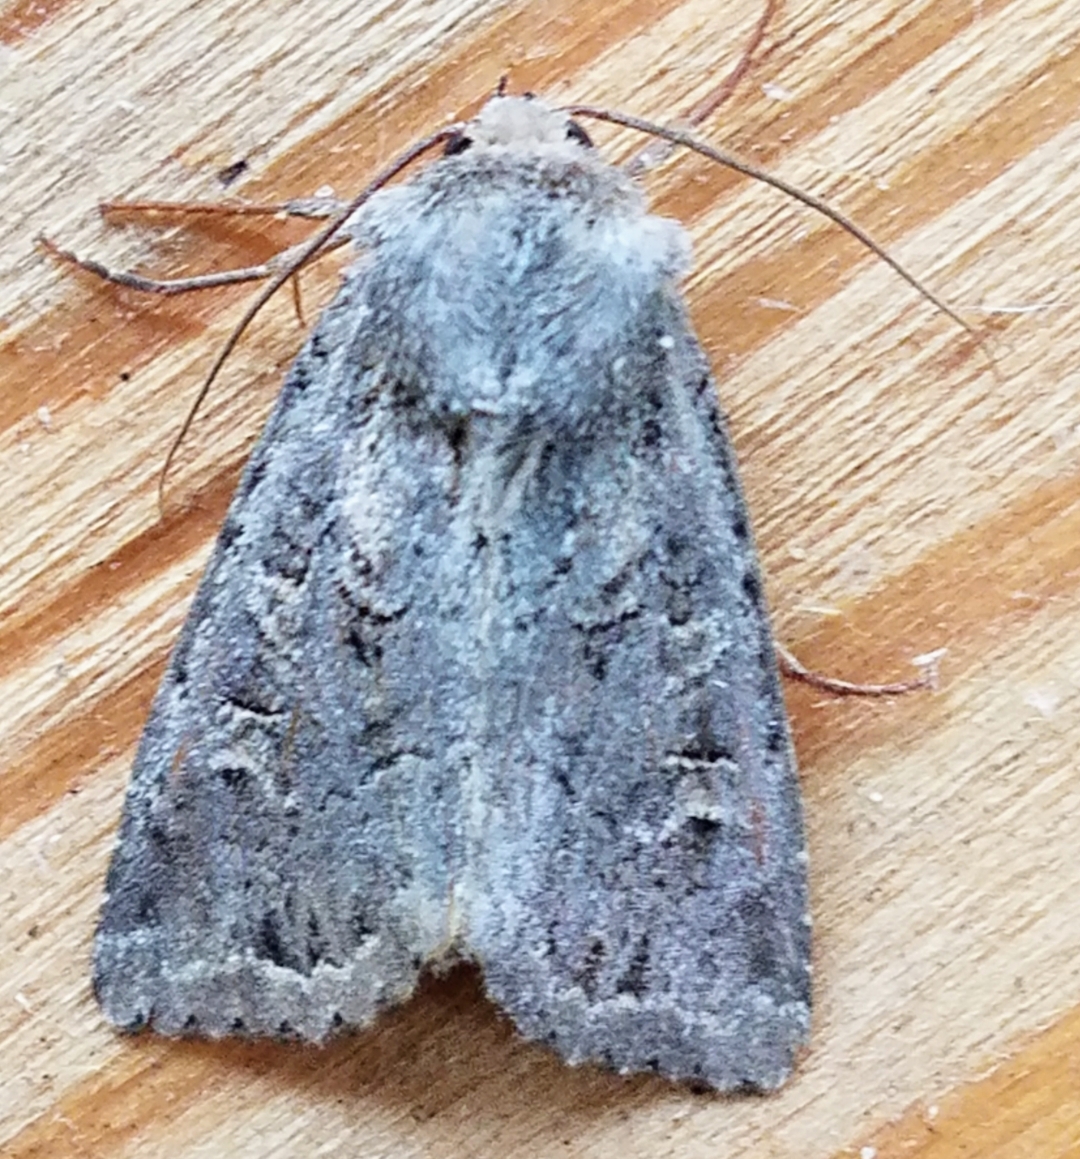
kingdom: Animalia
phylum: Arthropoda
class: Insecta
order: Lepidoptera
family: Noctuidae
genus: Apamea
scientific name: Apamea devastator
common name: Glassy cutworm
